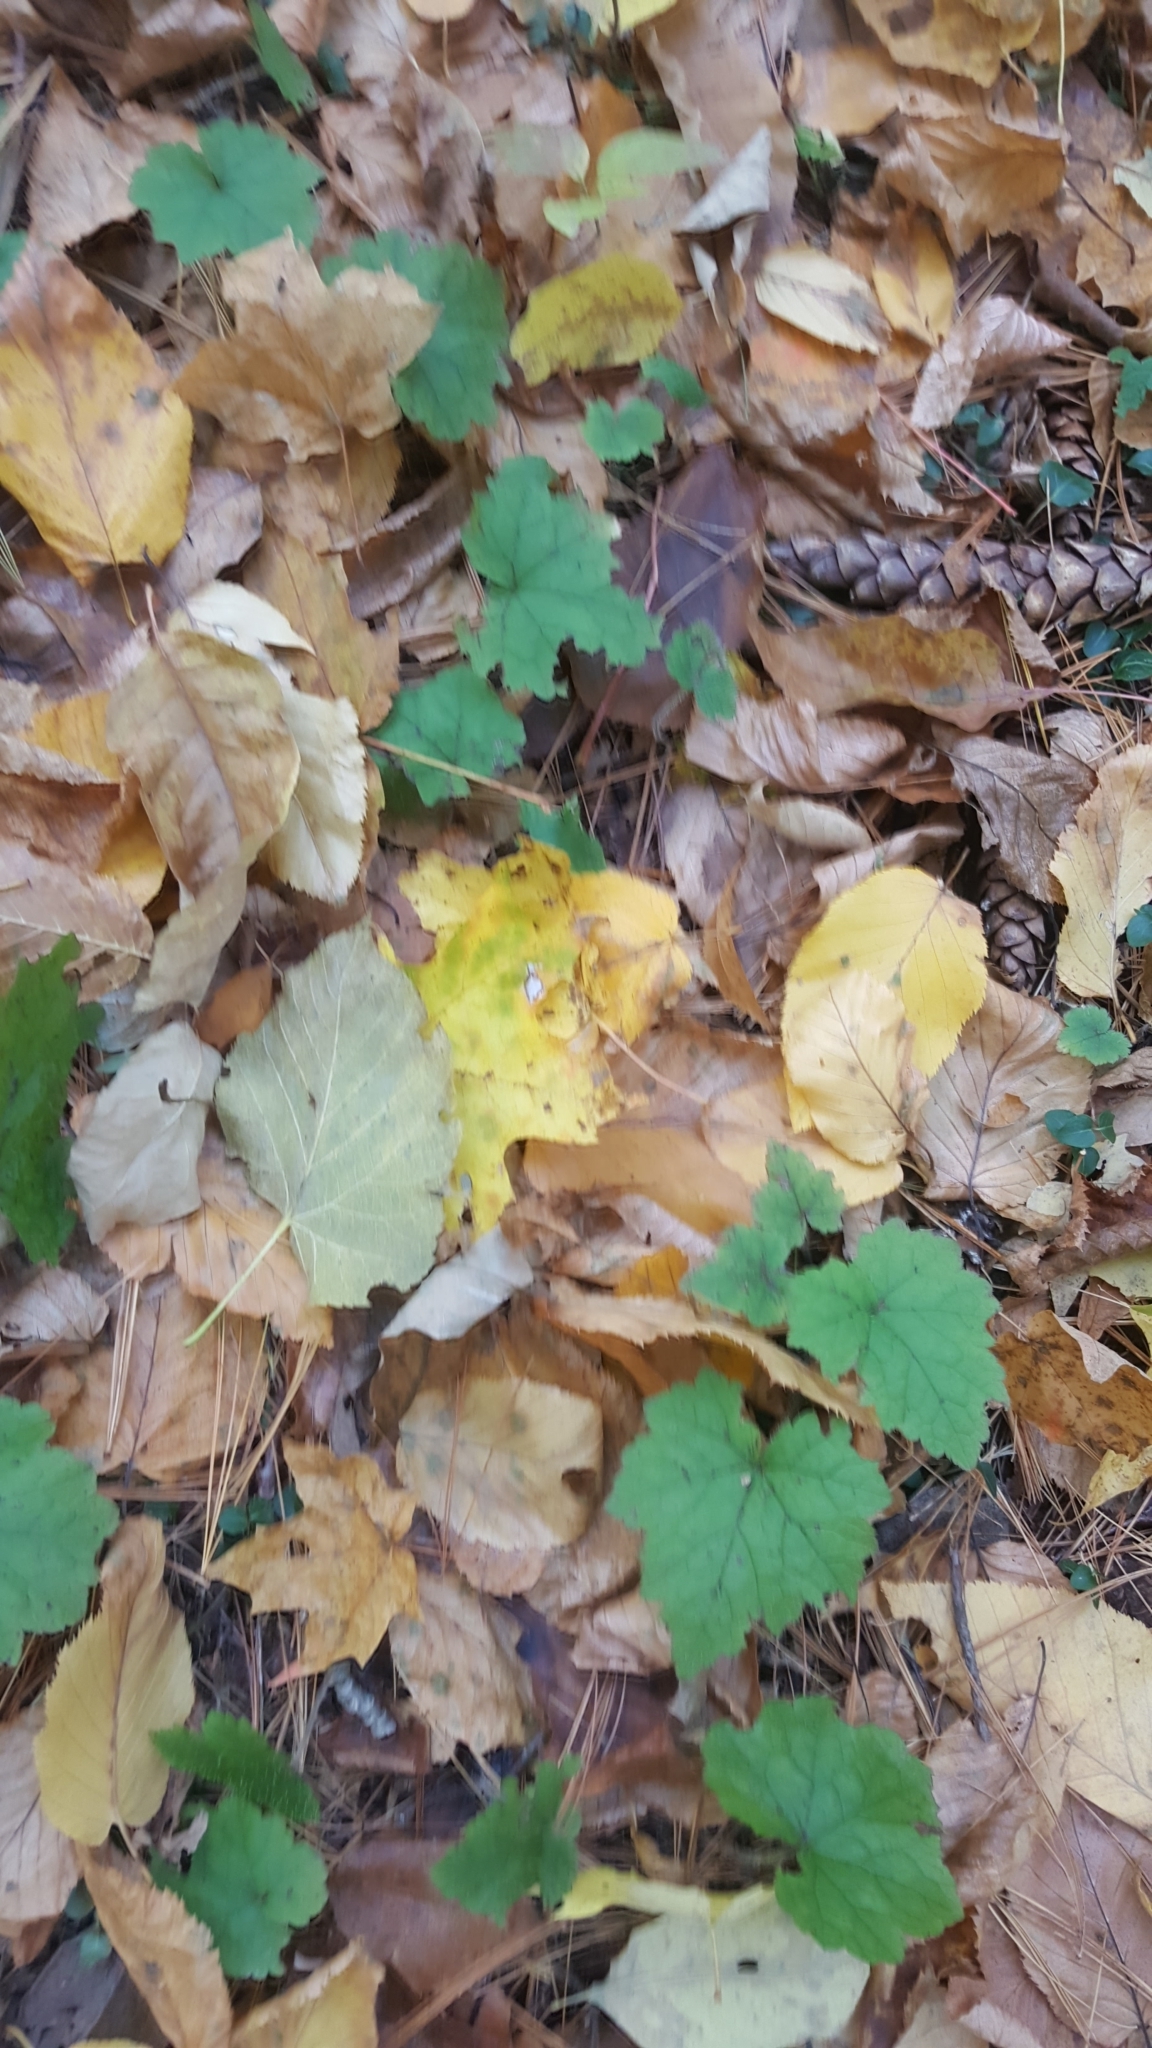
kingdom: Plantae
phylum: Tracheophyta
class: Magnoliopsida
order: Saxifragales
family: Saxifragaceae
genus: Tiarella
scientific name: Tiarella stolonifera
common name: Stoloniferous foamflower
